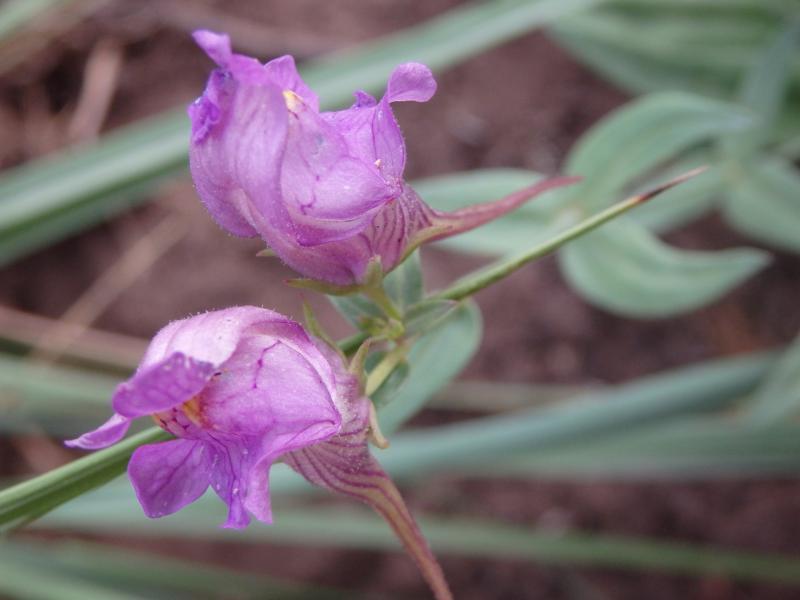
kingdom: Plantae
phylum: Tracheophyta
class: Magnoliopsida
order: Lamiales
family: Plantaginaceae
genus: Linaria
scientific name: Linaria triornithophora
